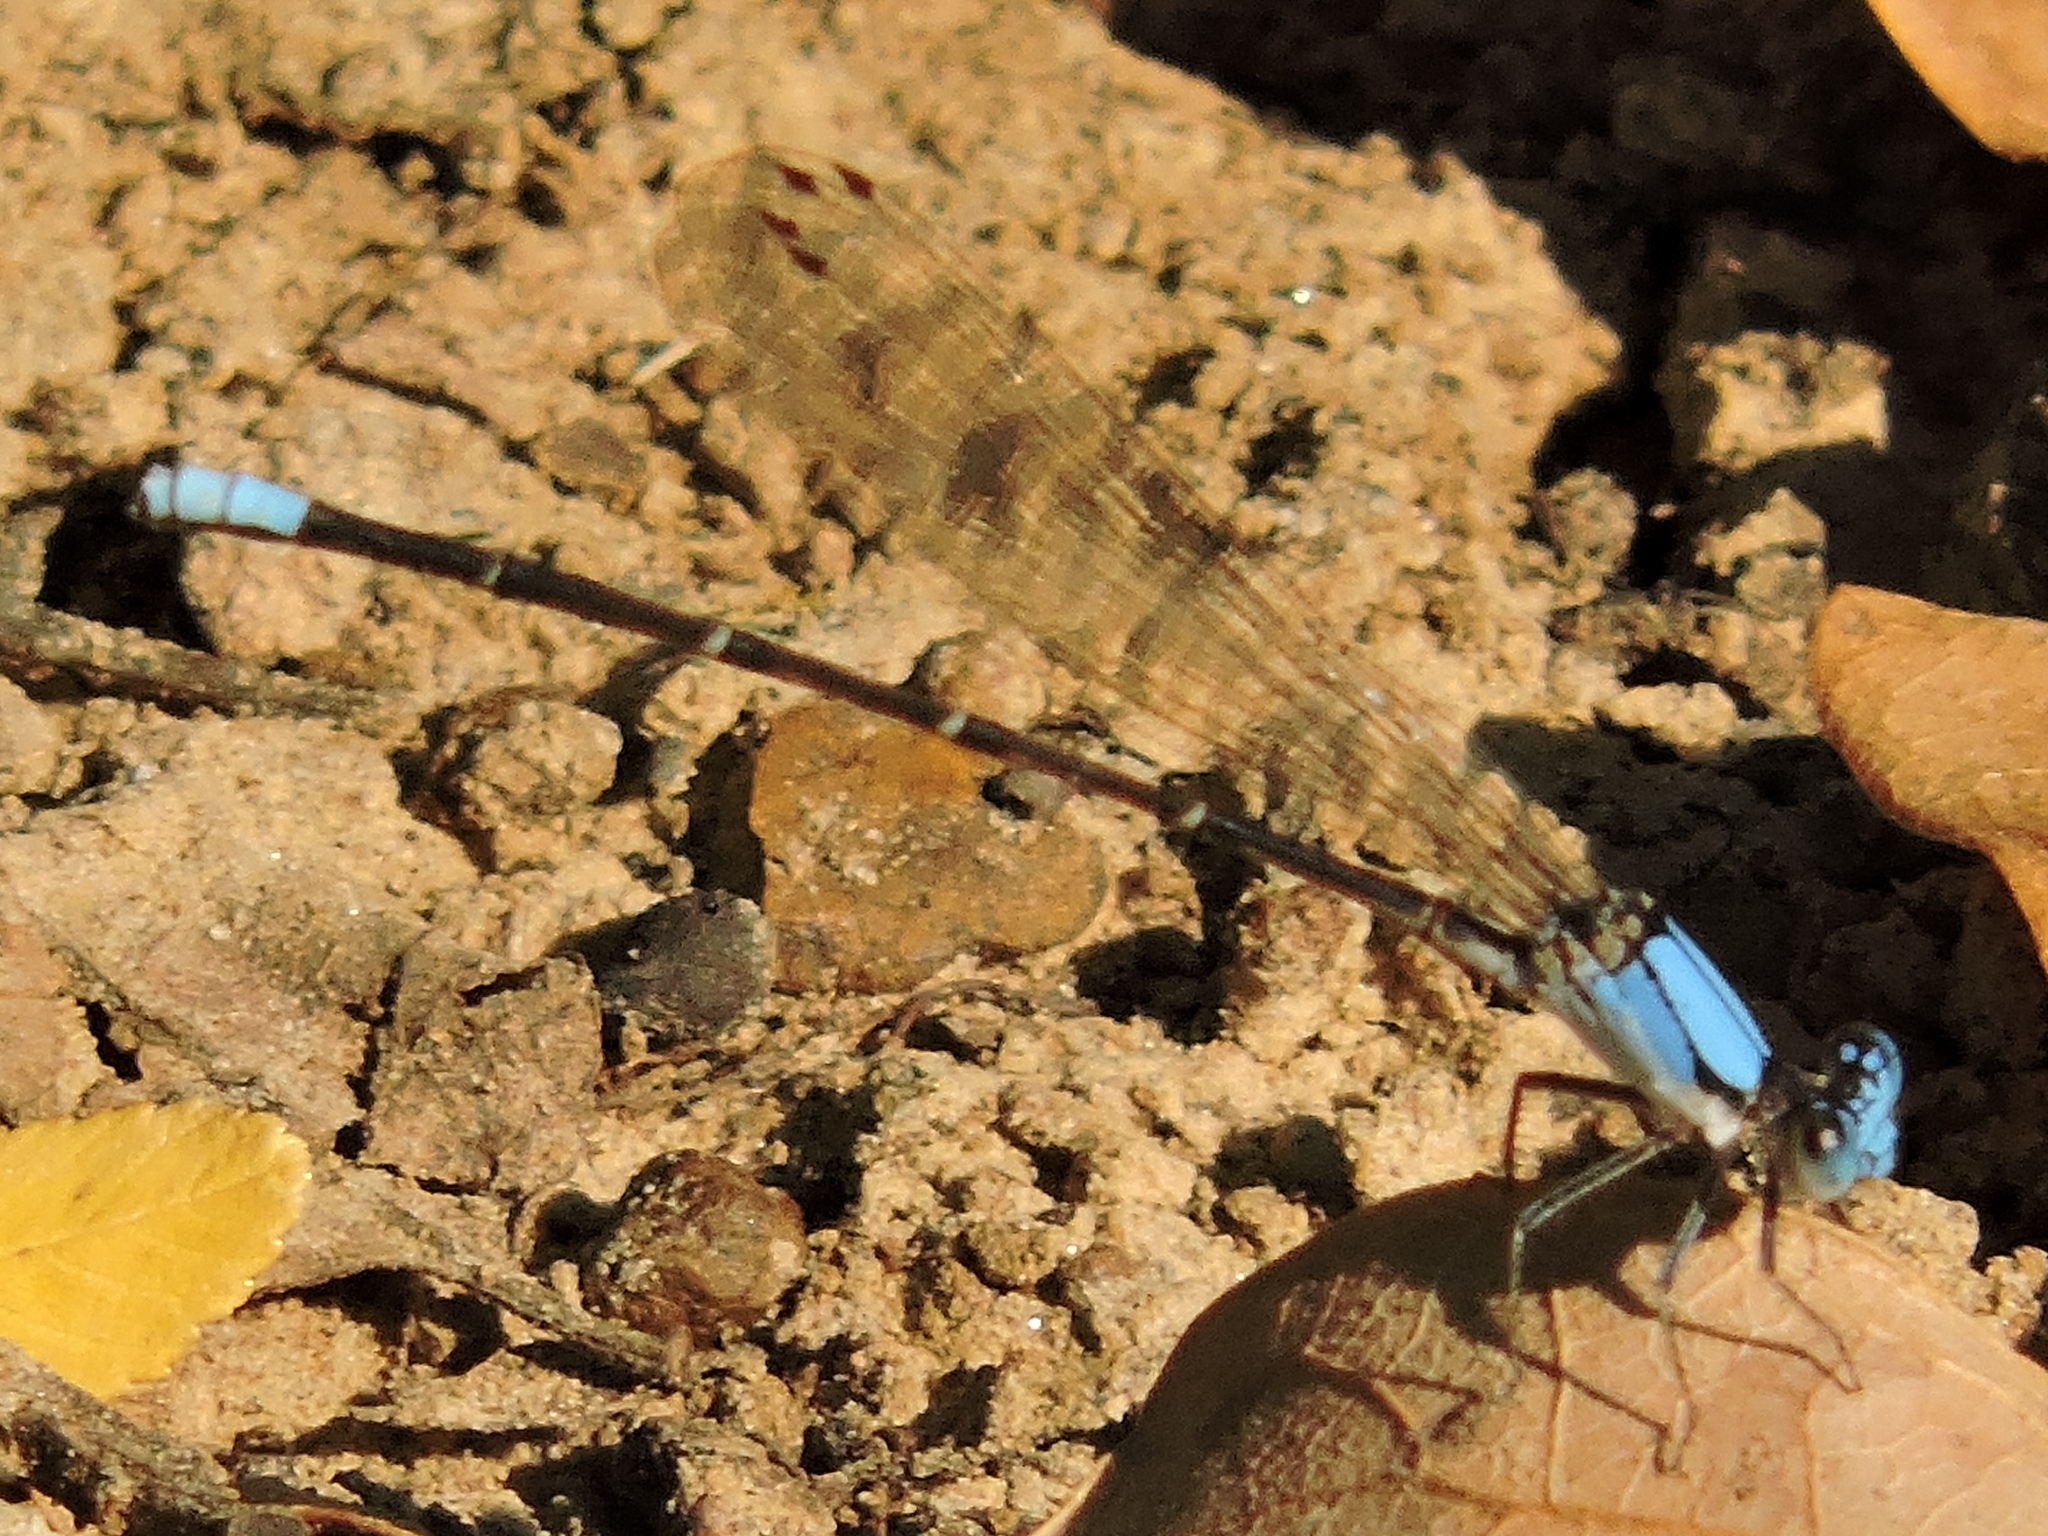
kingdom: Animalia
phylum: Arthropoda
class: Insecta
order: Odonata
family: Coenagrionidae
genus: Argia
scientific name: Argia apicalis
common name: Blue-fronted dancer
